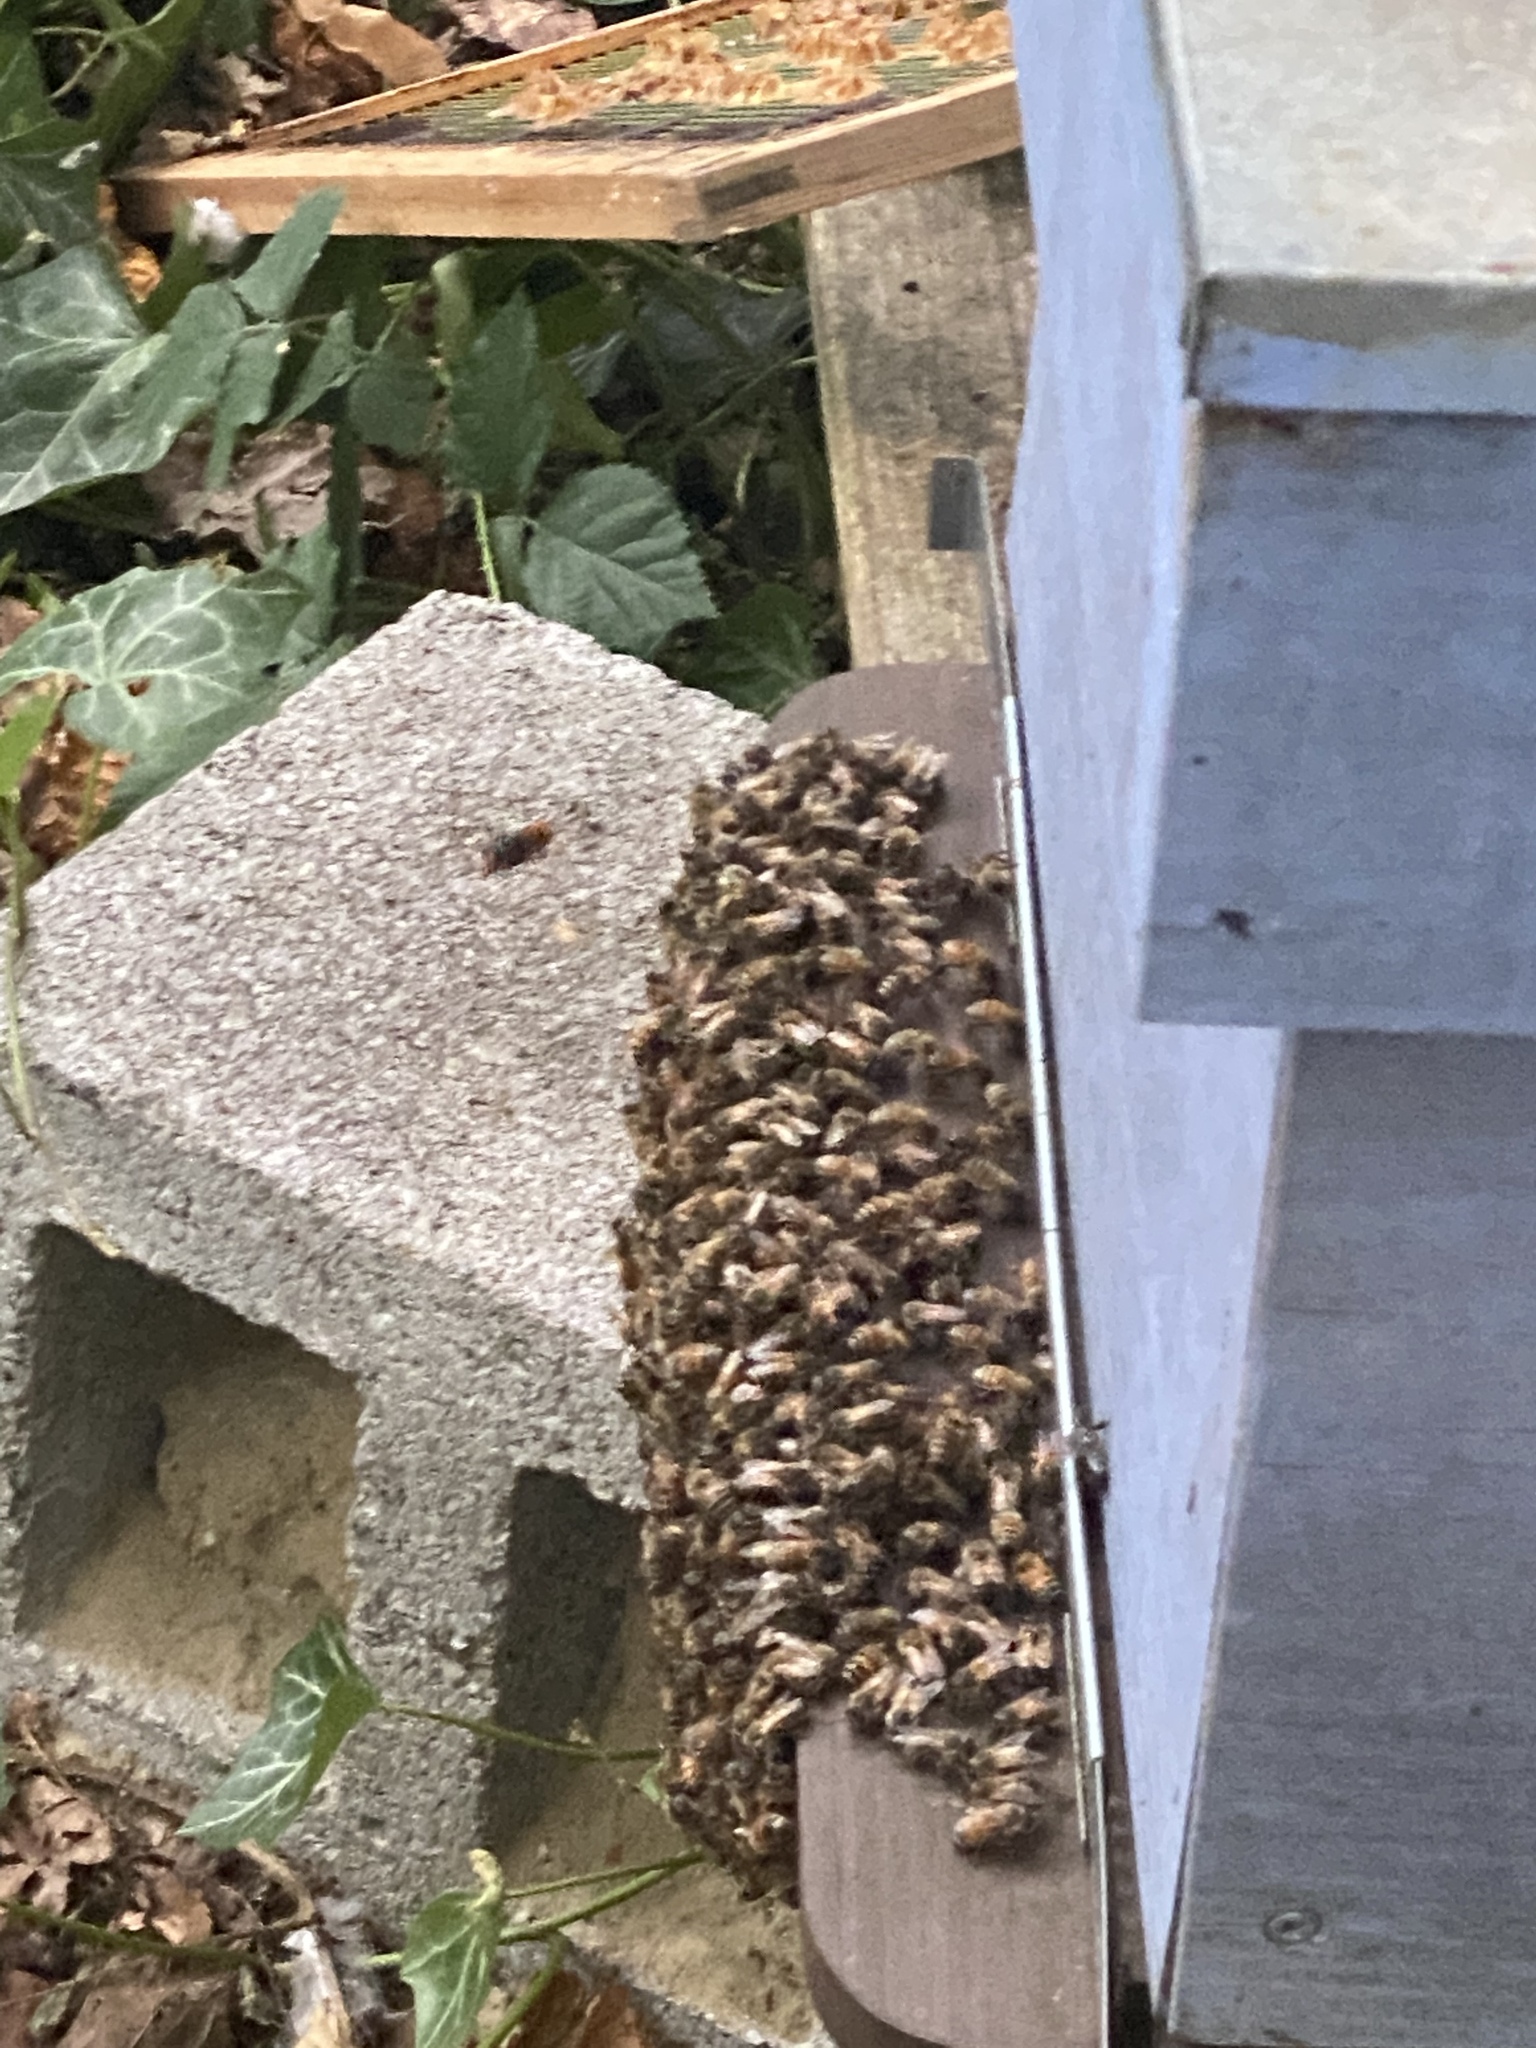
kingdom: Animalia
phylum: Arthropoda
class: Insecta
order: Hymenoptera
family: Vespidae
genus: Vespa
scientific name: Vespa velutina
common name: Asian hornet
